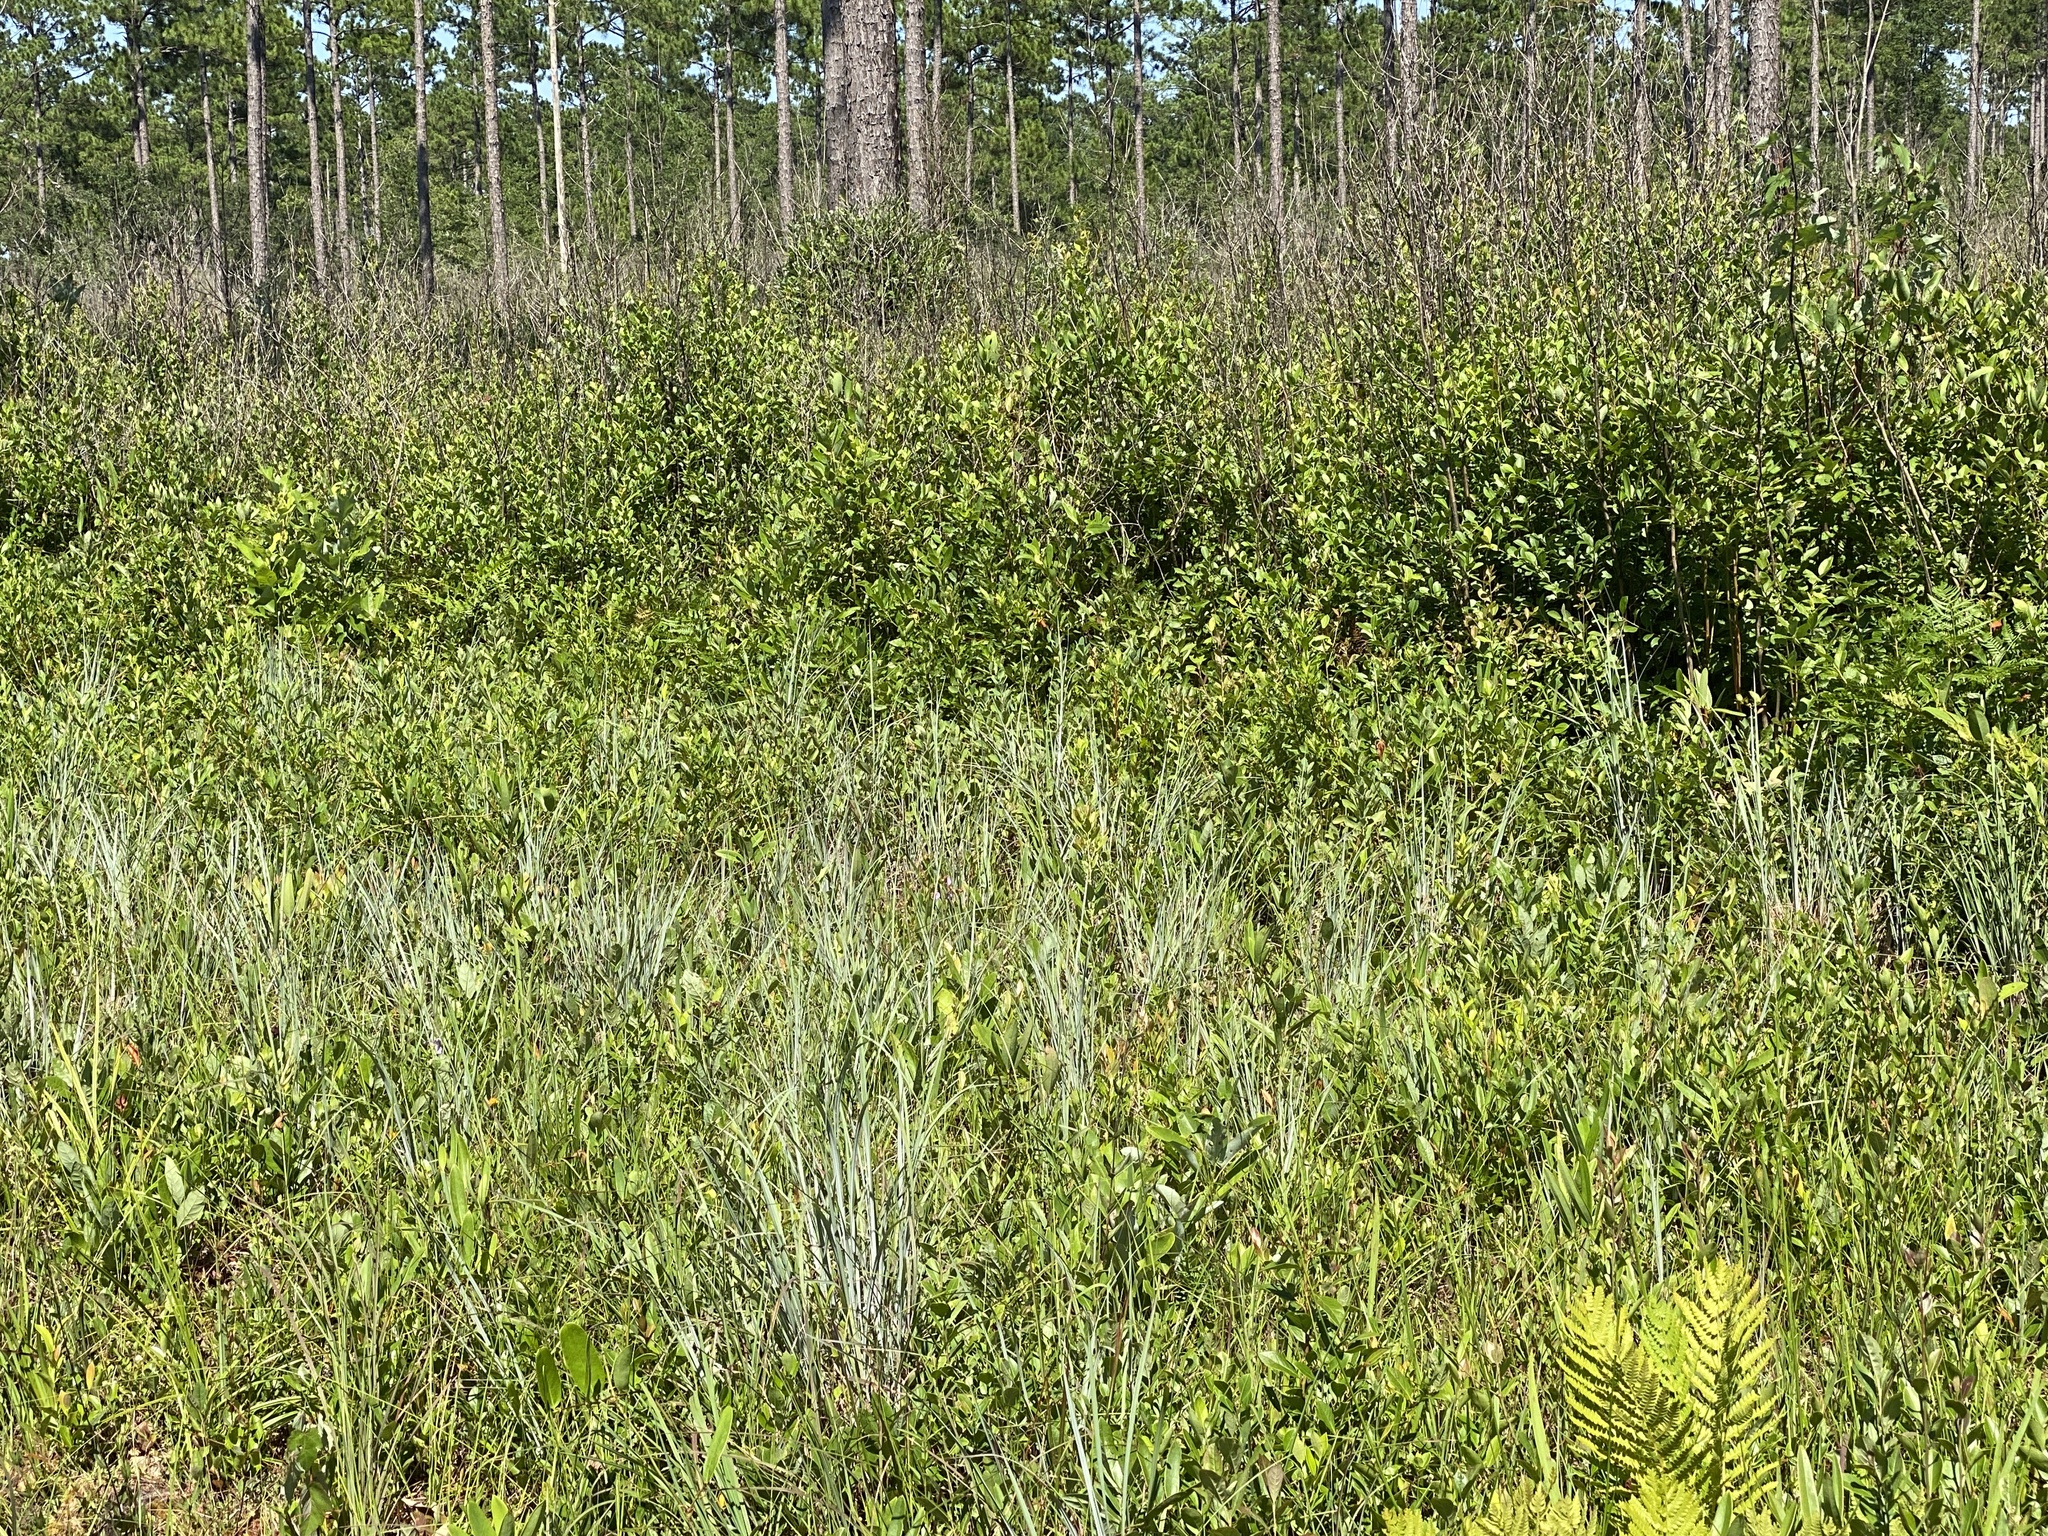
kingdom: Plantae
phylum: Tracheophyta
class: Liliopsida
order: Poales
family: Poaceae
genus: Andropogon
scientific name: Andropogon cretaceus
